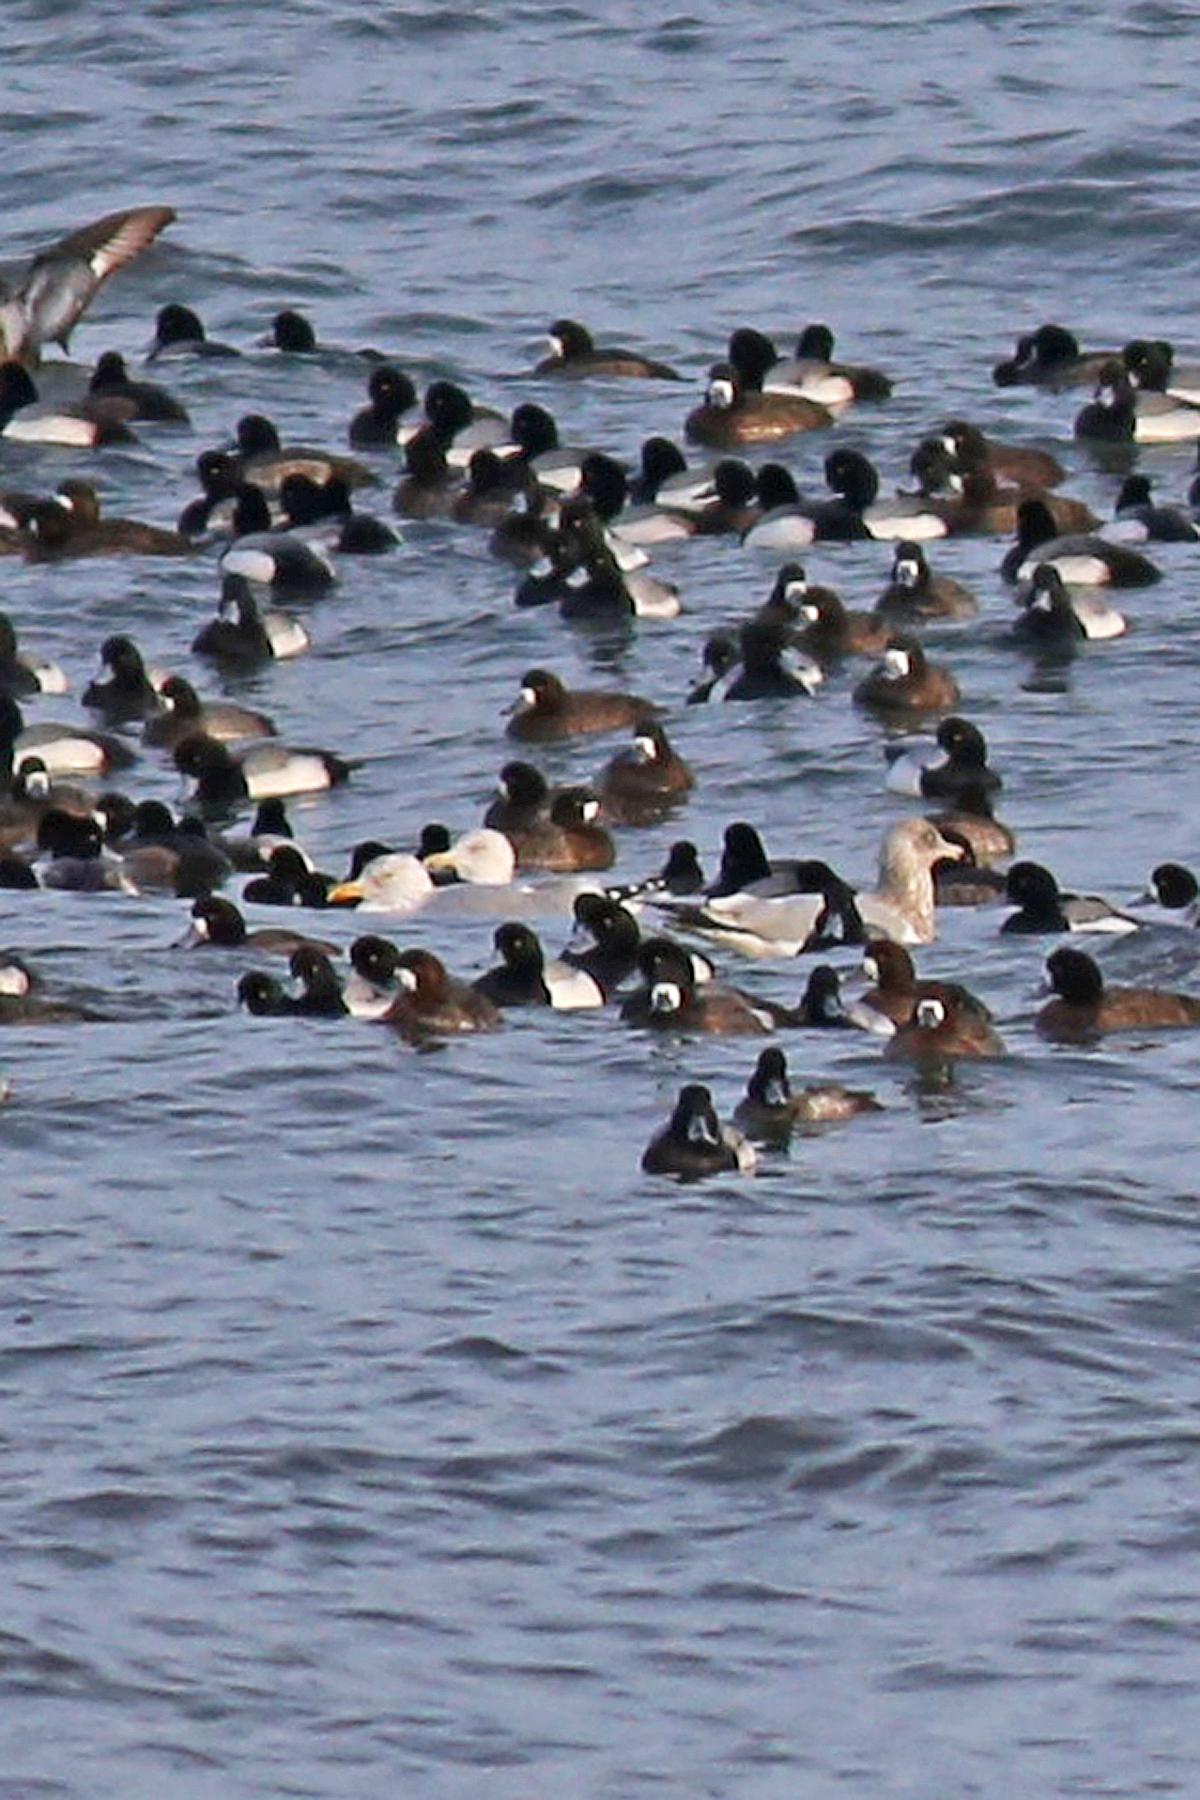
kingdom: Animalia
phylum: Chordata
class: Aves
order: Charadriiformes
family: Laridae
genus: Larus
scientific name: Larus argentatus
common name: Herring gull
